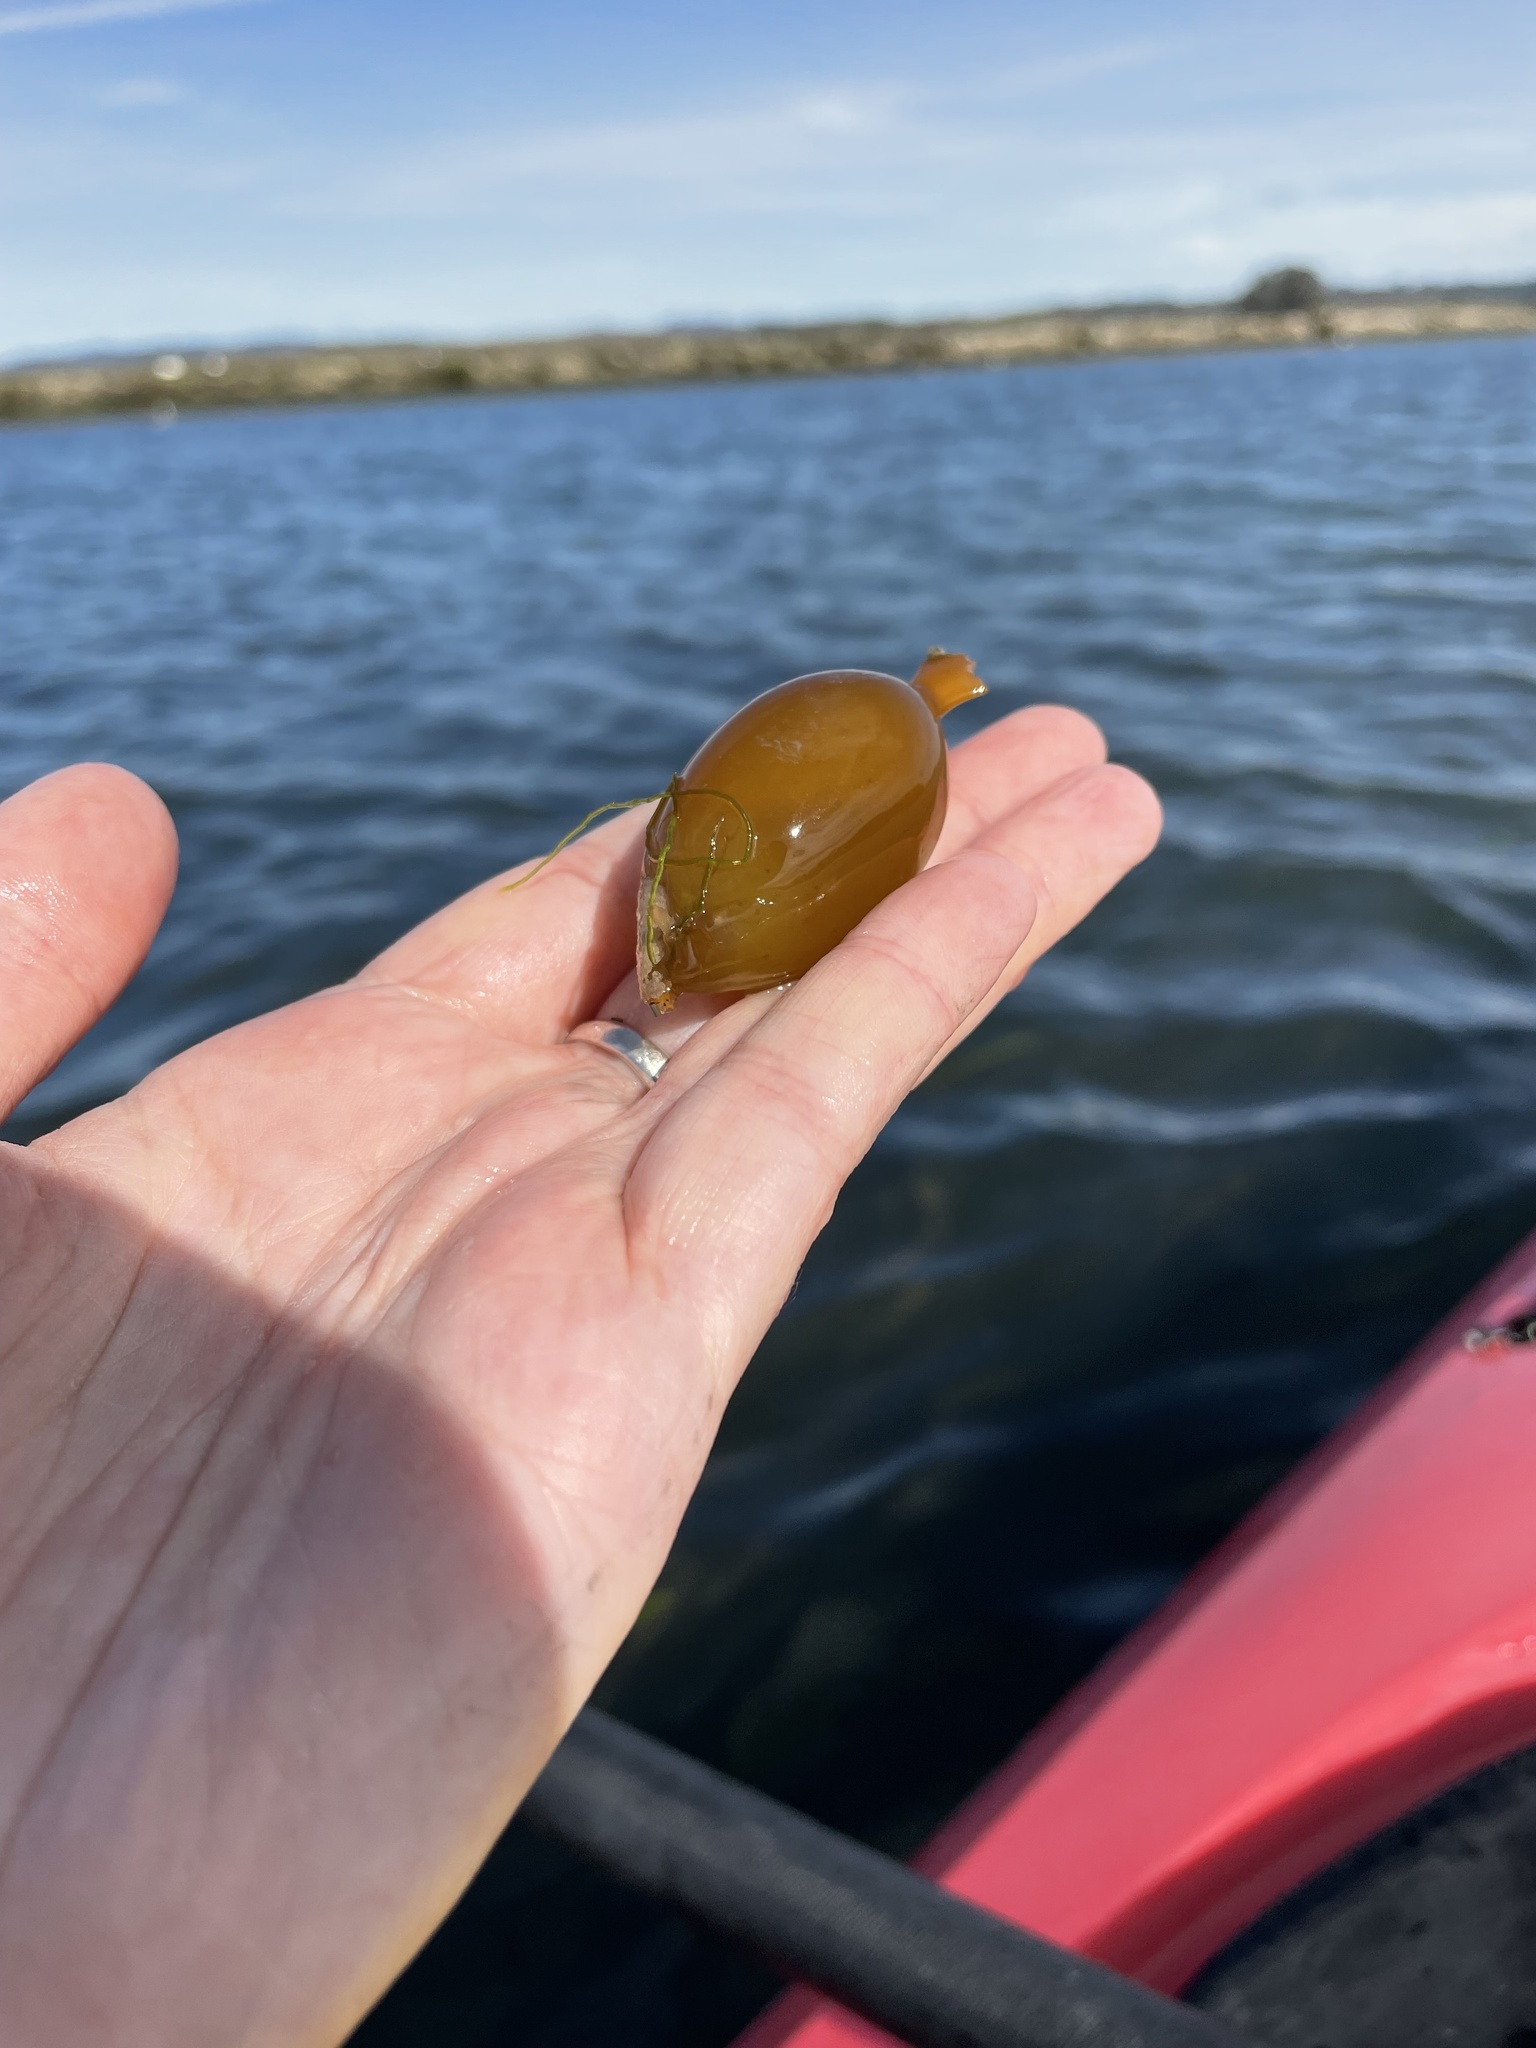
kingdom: Chromista
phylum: Ochrophyta
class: Phaeophyceae
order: Laminariales
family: Laminariaceae
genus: Macrocystis
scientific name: Macrocystis pyrifera
